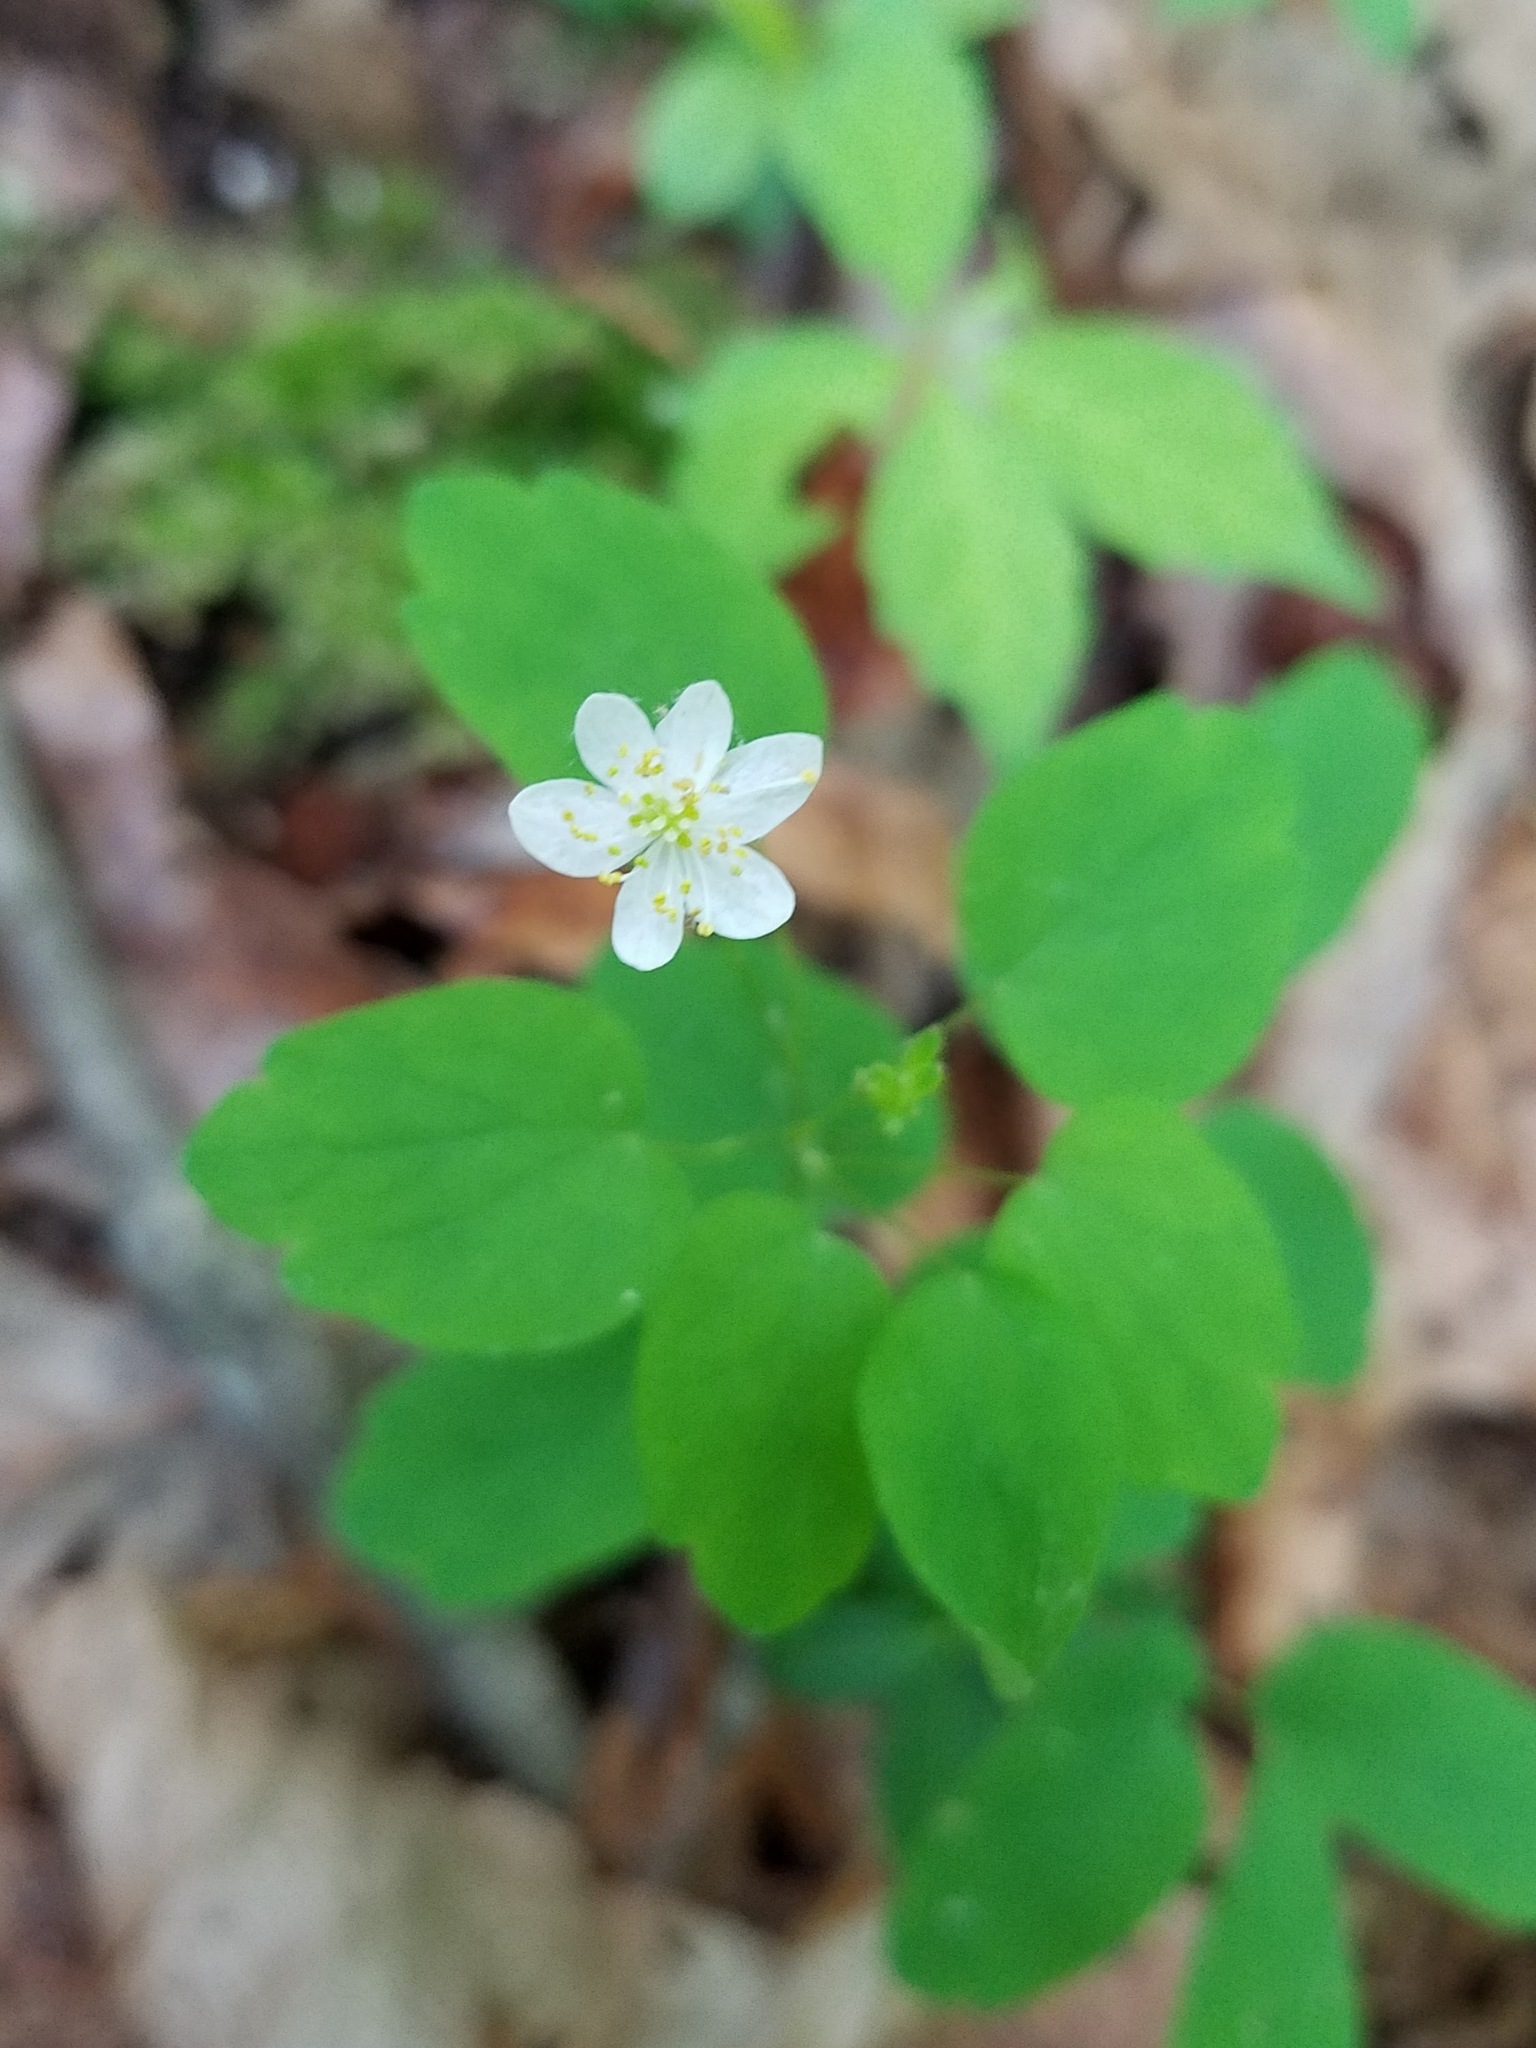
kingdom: Plantae
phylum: Tracheophyta
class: Magnoliopsida
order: Ranunculales
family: Ranunculaceae
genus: Thalictrum
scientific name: Thalictrum thalictroides
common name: Rue-anemone
